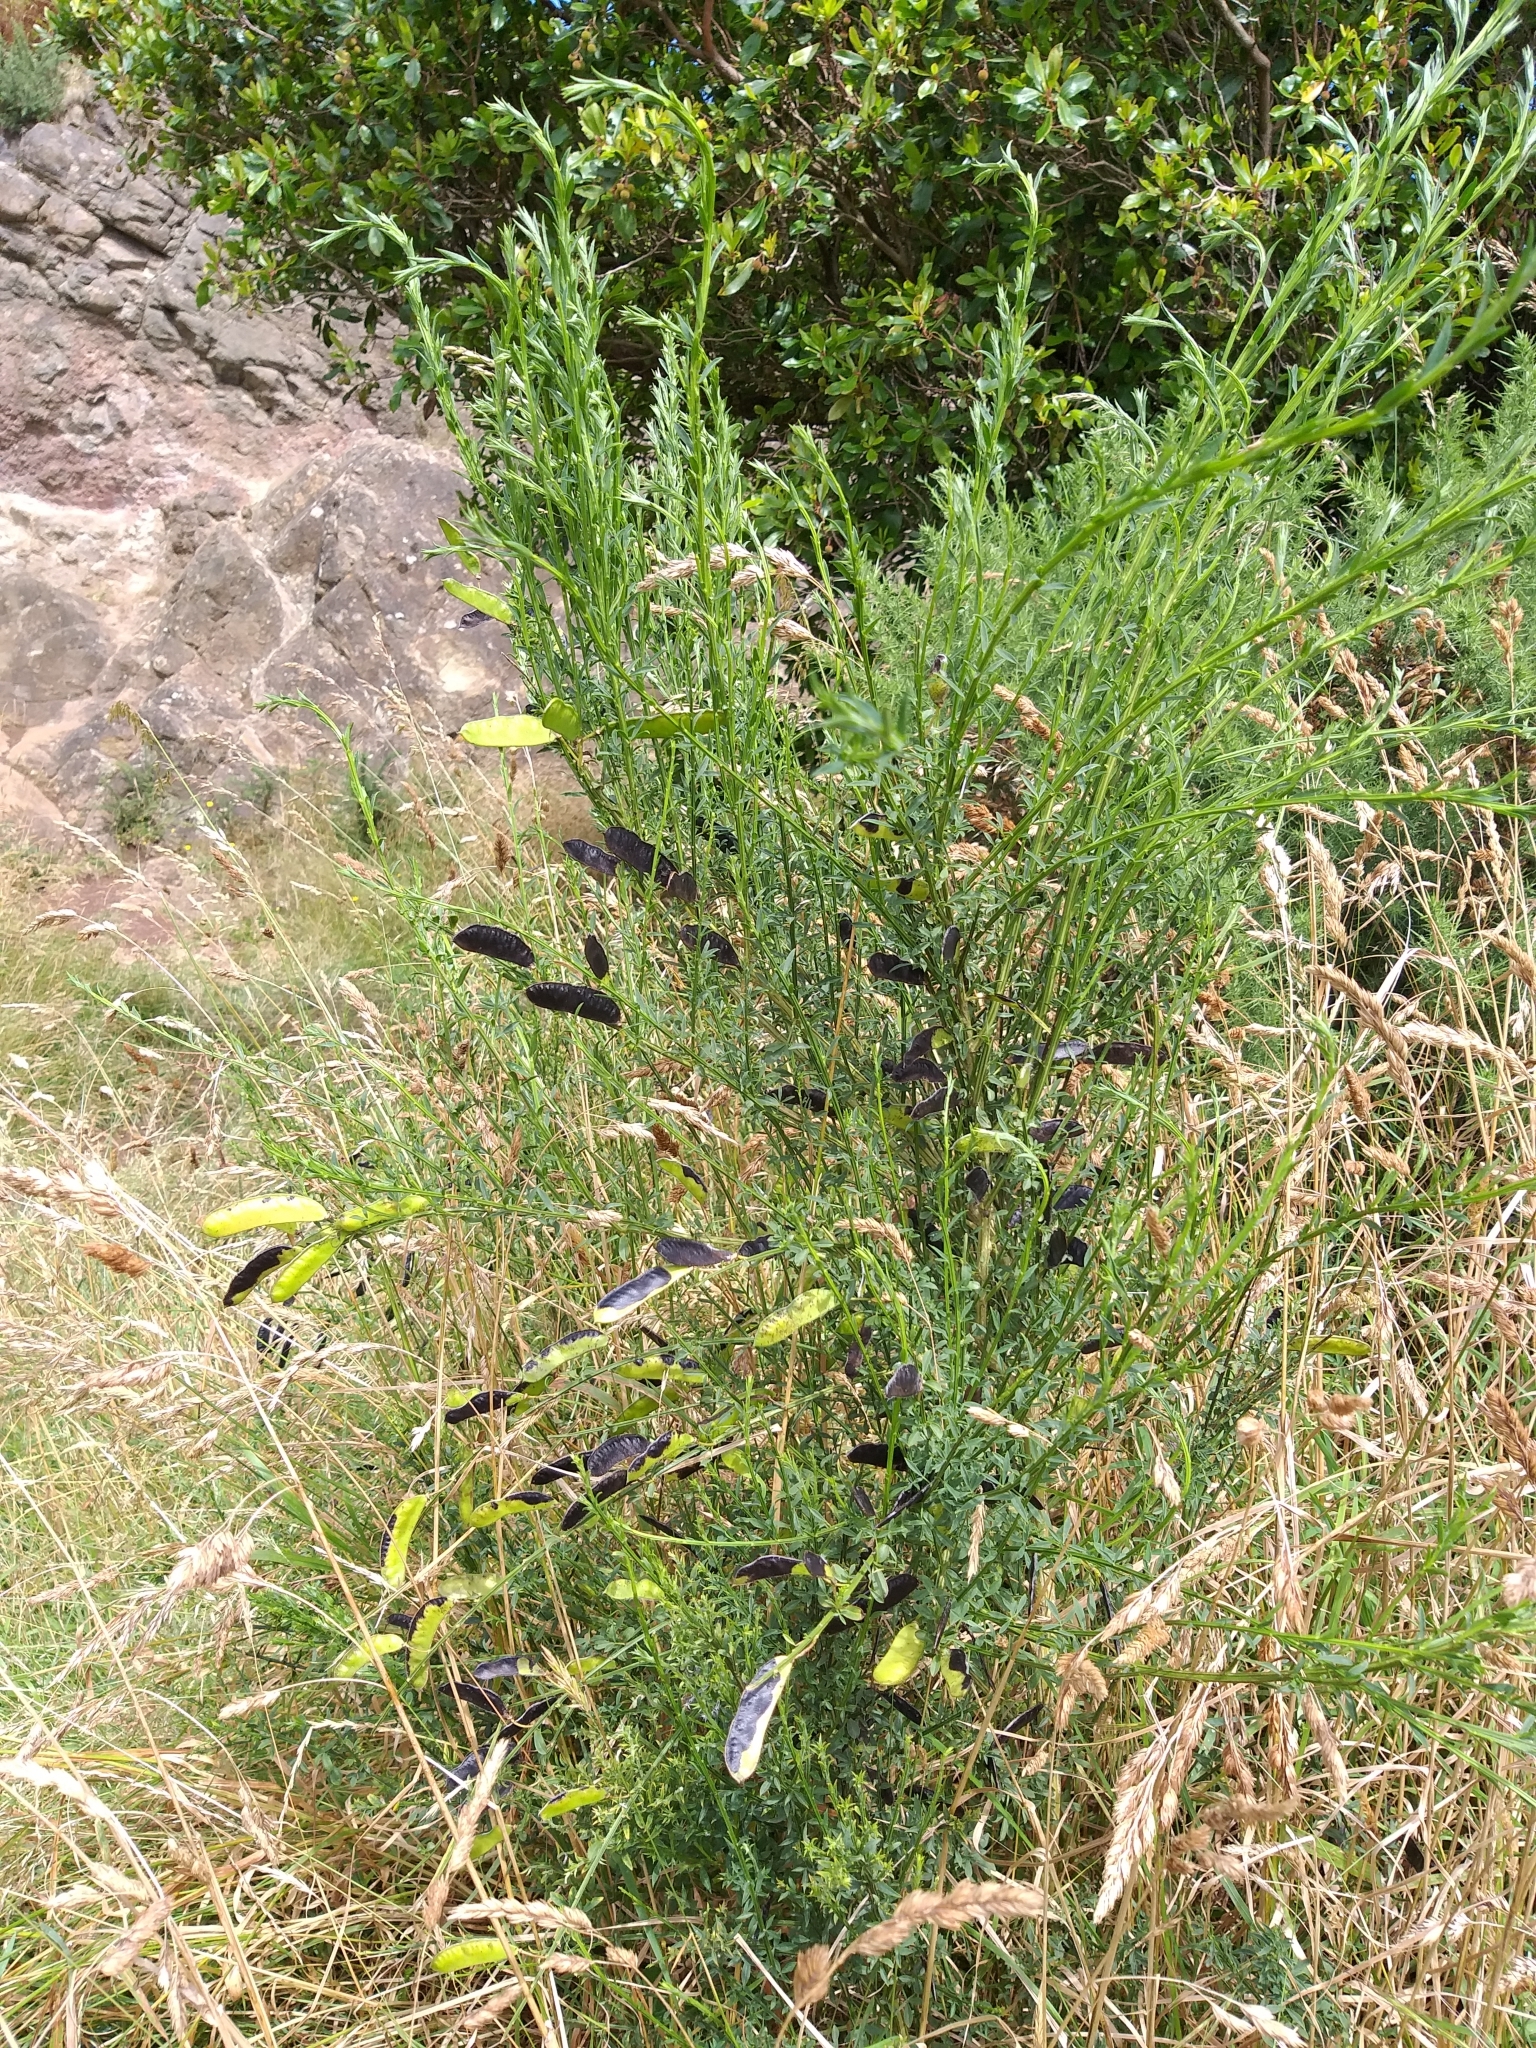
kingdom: Plantae
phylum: Tracheophyta
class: Magnoliopsida
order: Fabales
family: Fabaceae
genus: Cytisus
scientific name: Cytisus scoparius
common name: Scotch broom
